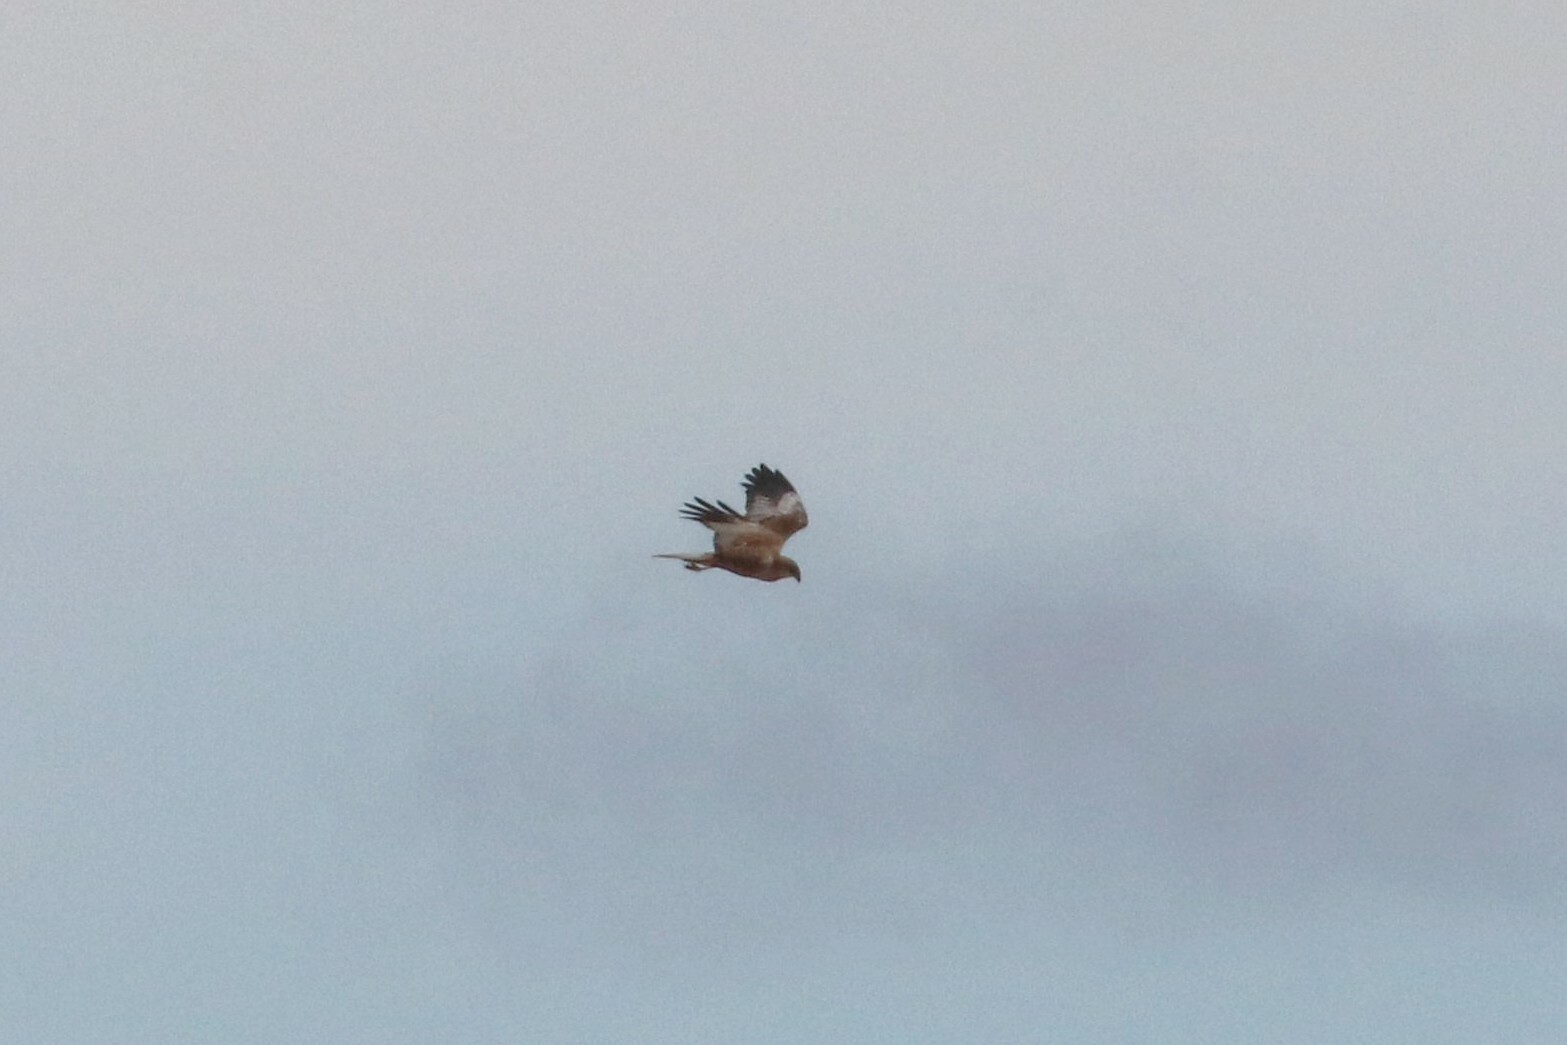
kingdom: Animalia
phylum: Chordata
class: Aves
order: Accipitriformes
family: Accipitridae
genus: Circus
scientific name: Circus aeruginosus
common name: Western marsh harrier
